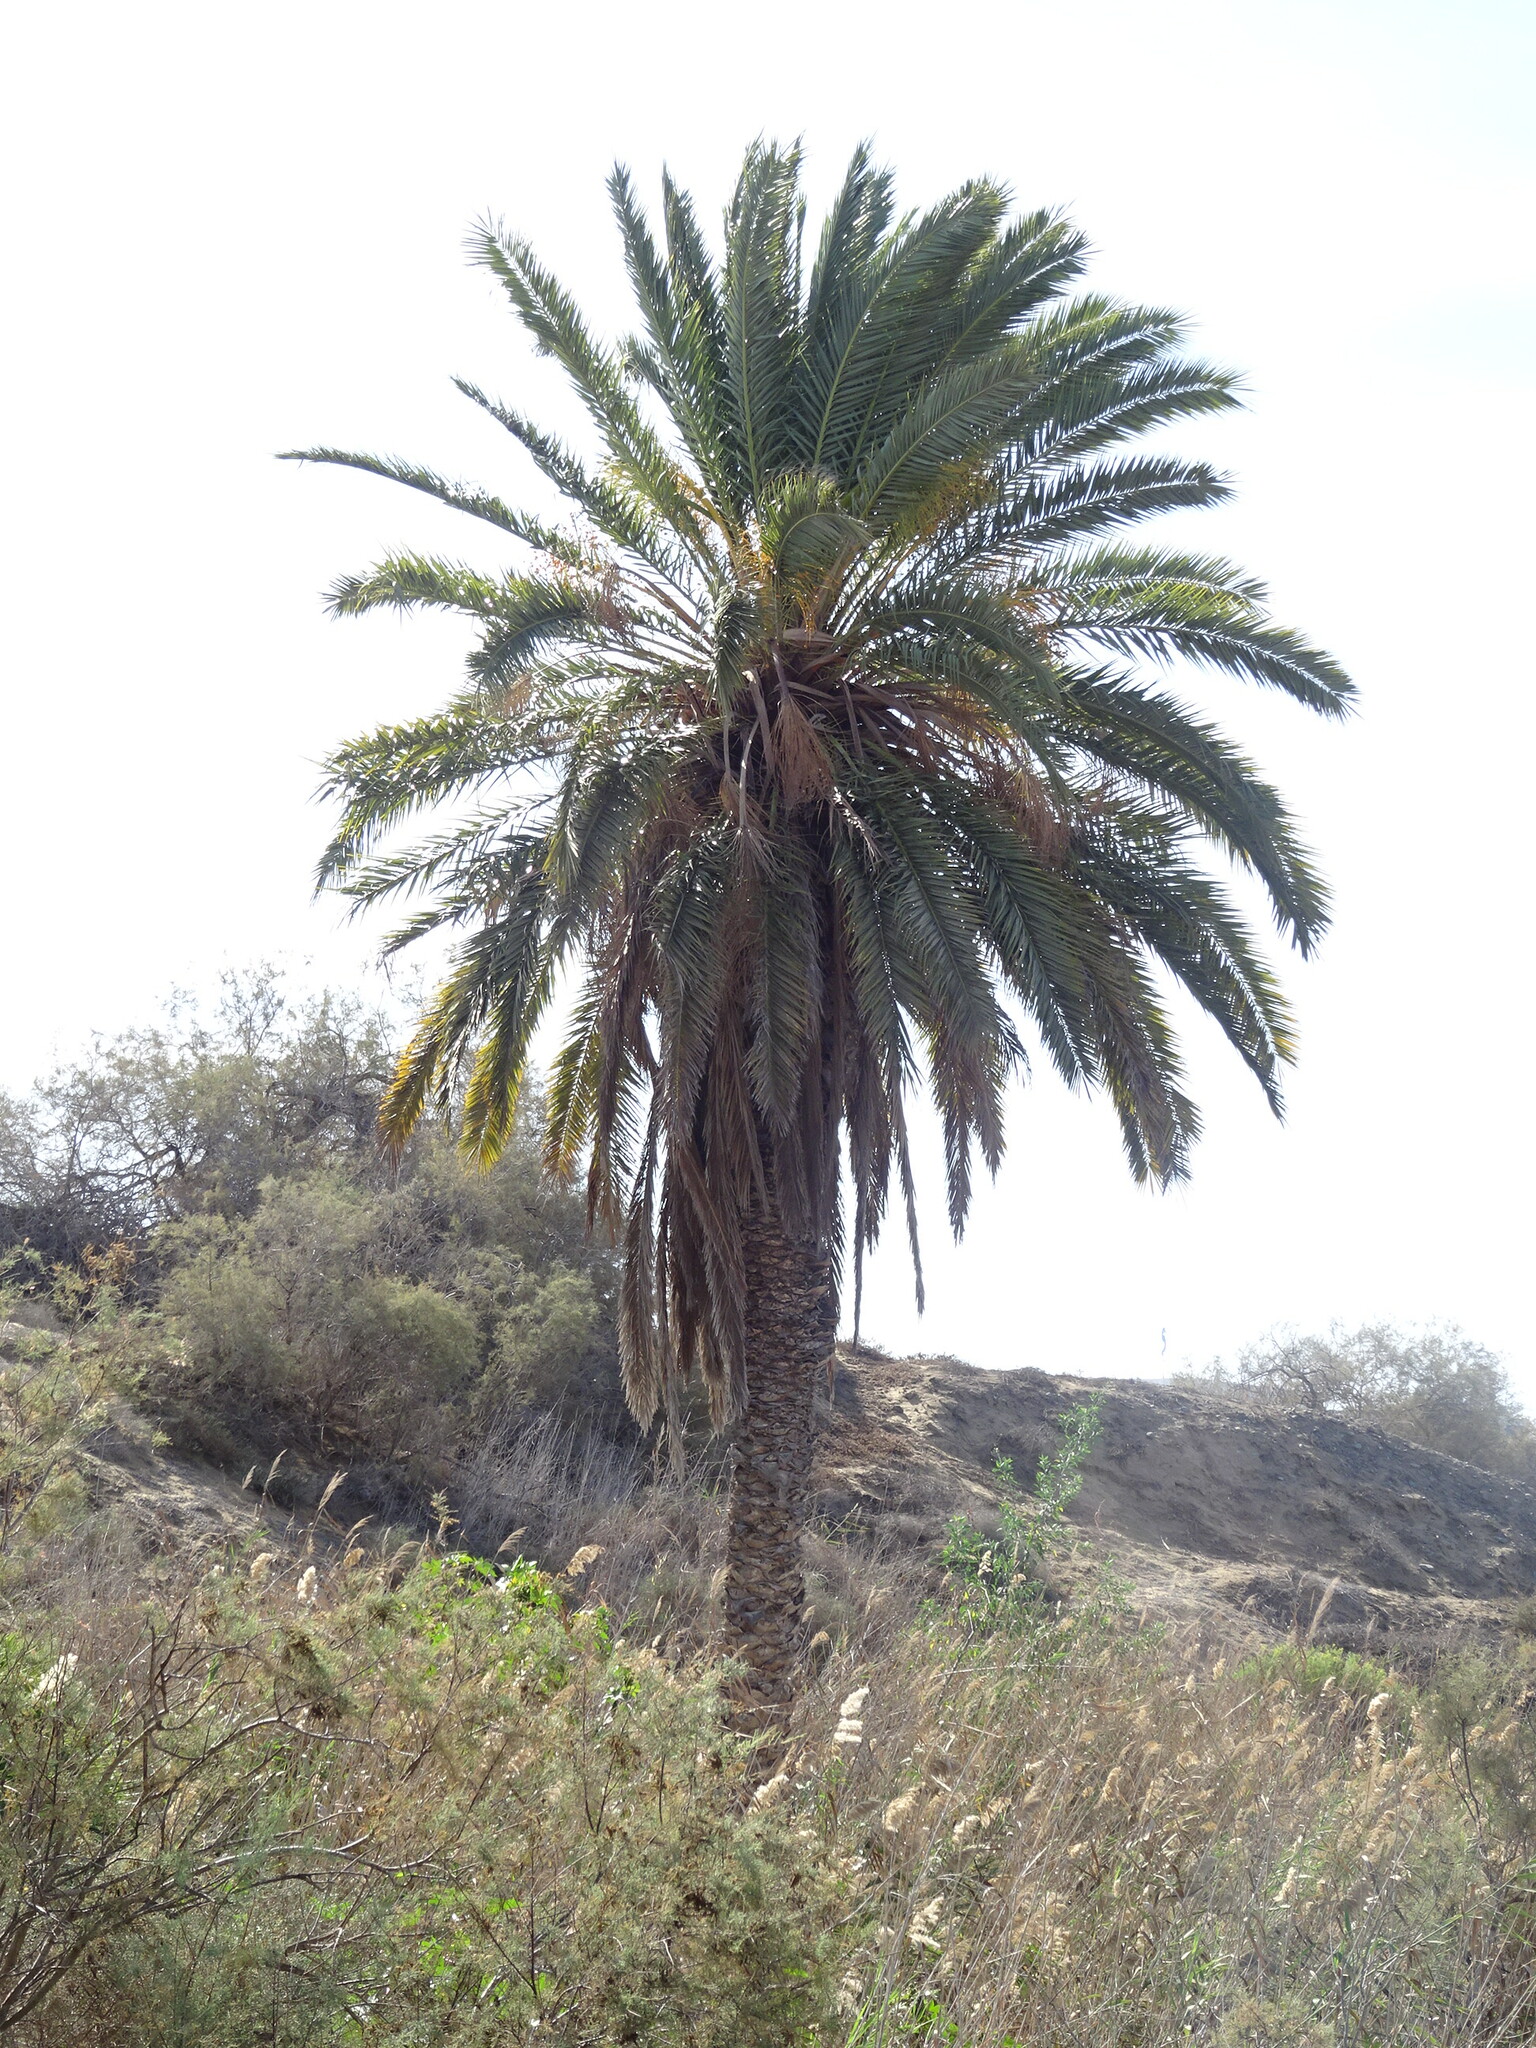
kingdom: Plantae
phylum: Tracheophyta
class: Liliopsida
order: Arecales
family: Arecaceae
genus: Phoenix
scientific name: Phoenix canariensis
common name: Canary island date palm
